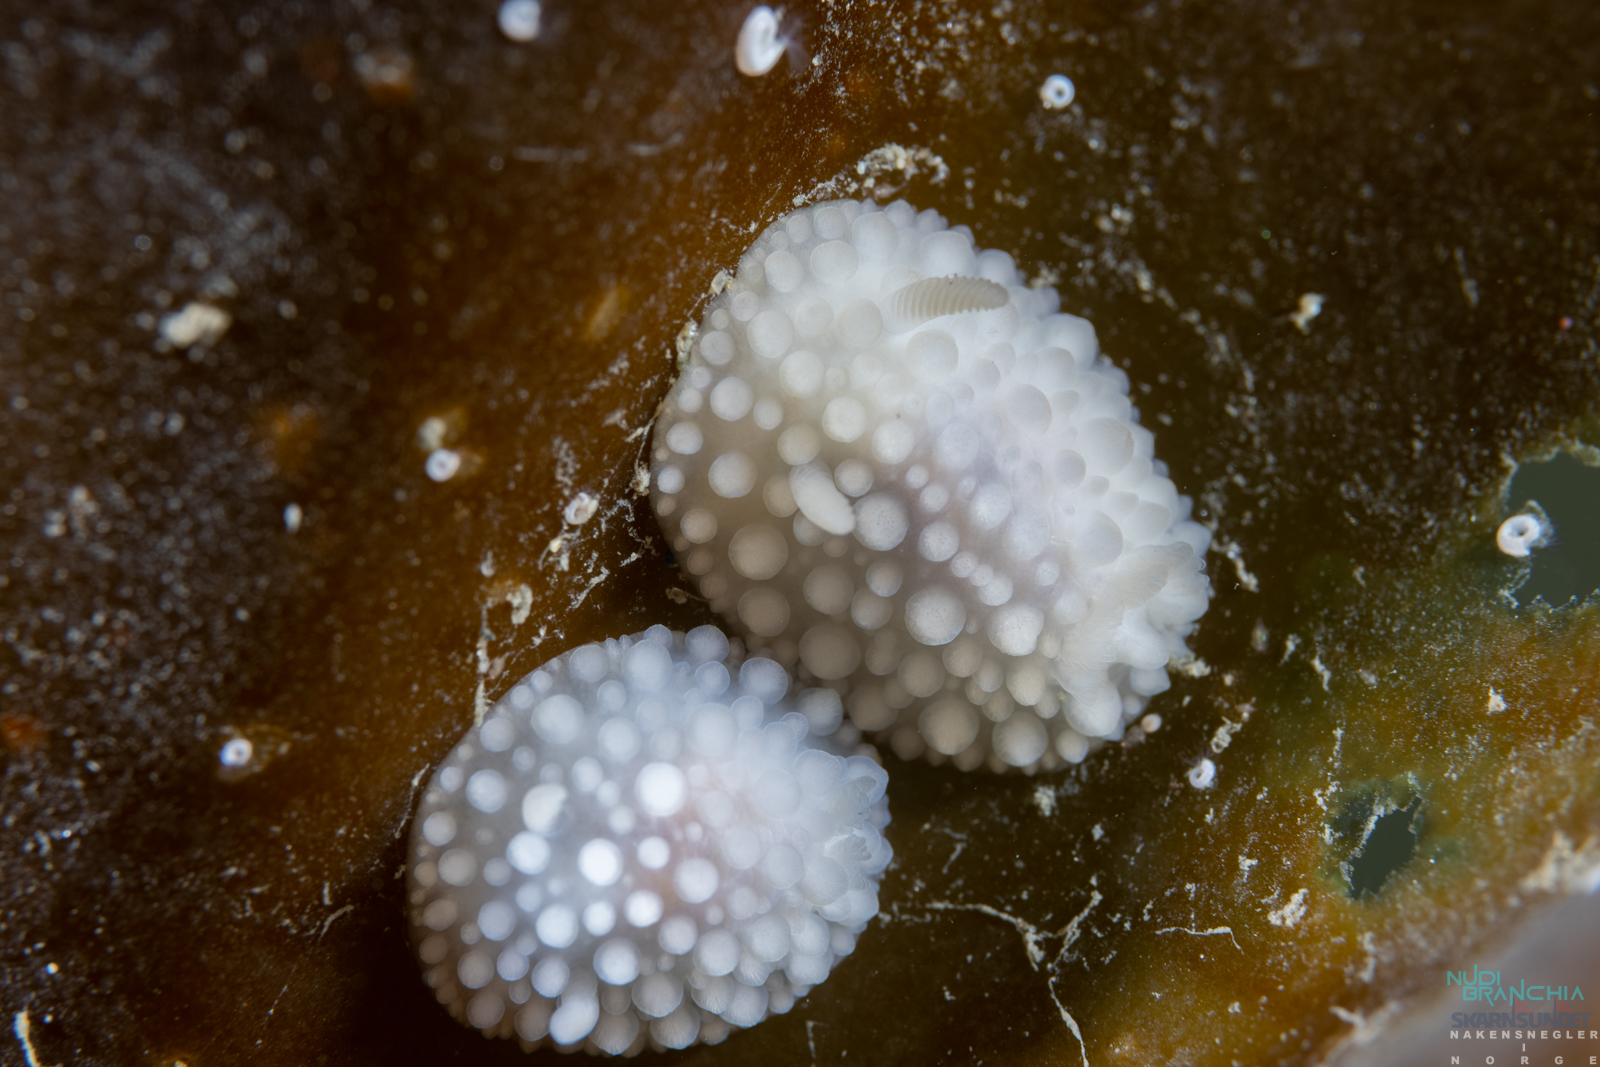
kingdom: Animalia
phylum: Mollusca
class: Gastropoda
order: Nudibranchia
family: Onchidorididae
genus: Adalaria
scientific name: Adalaria loveni
